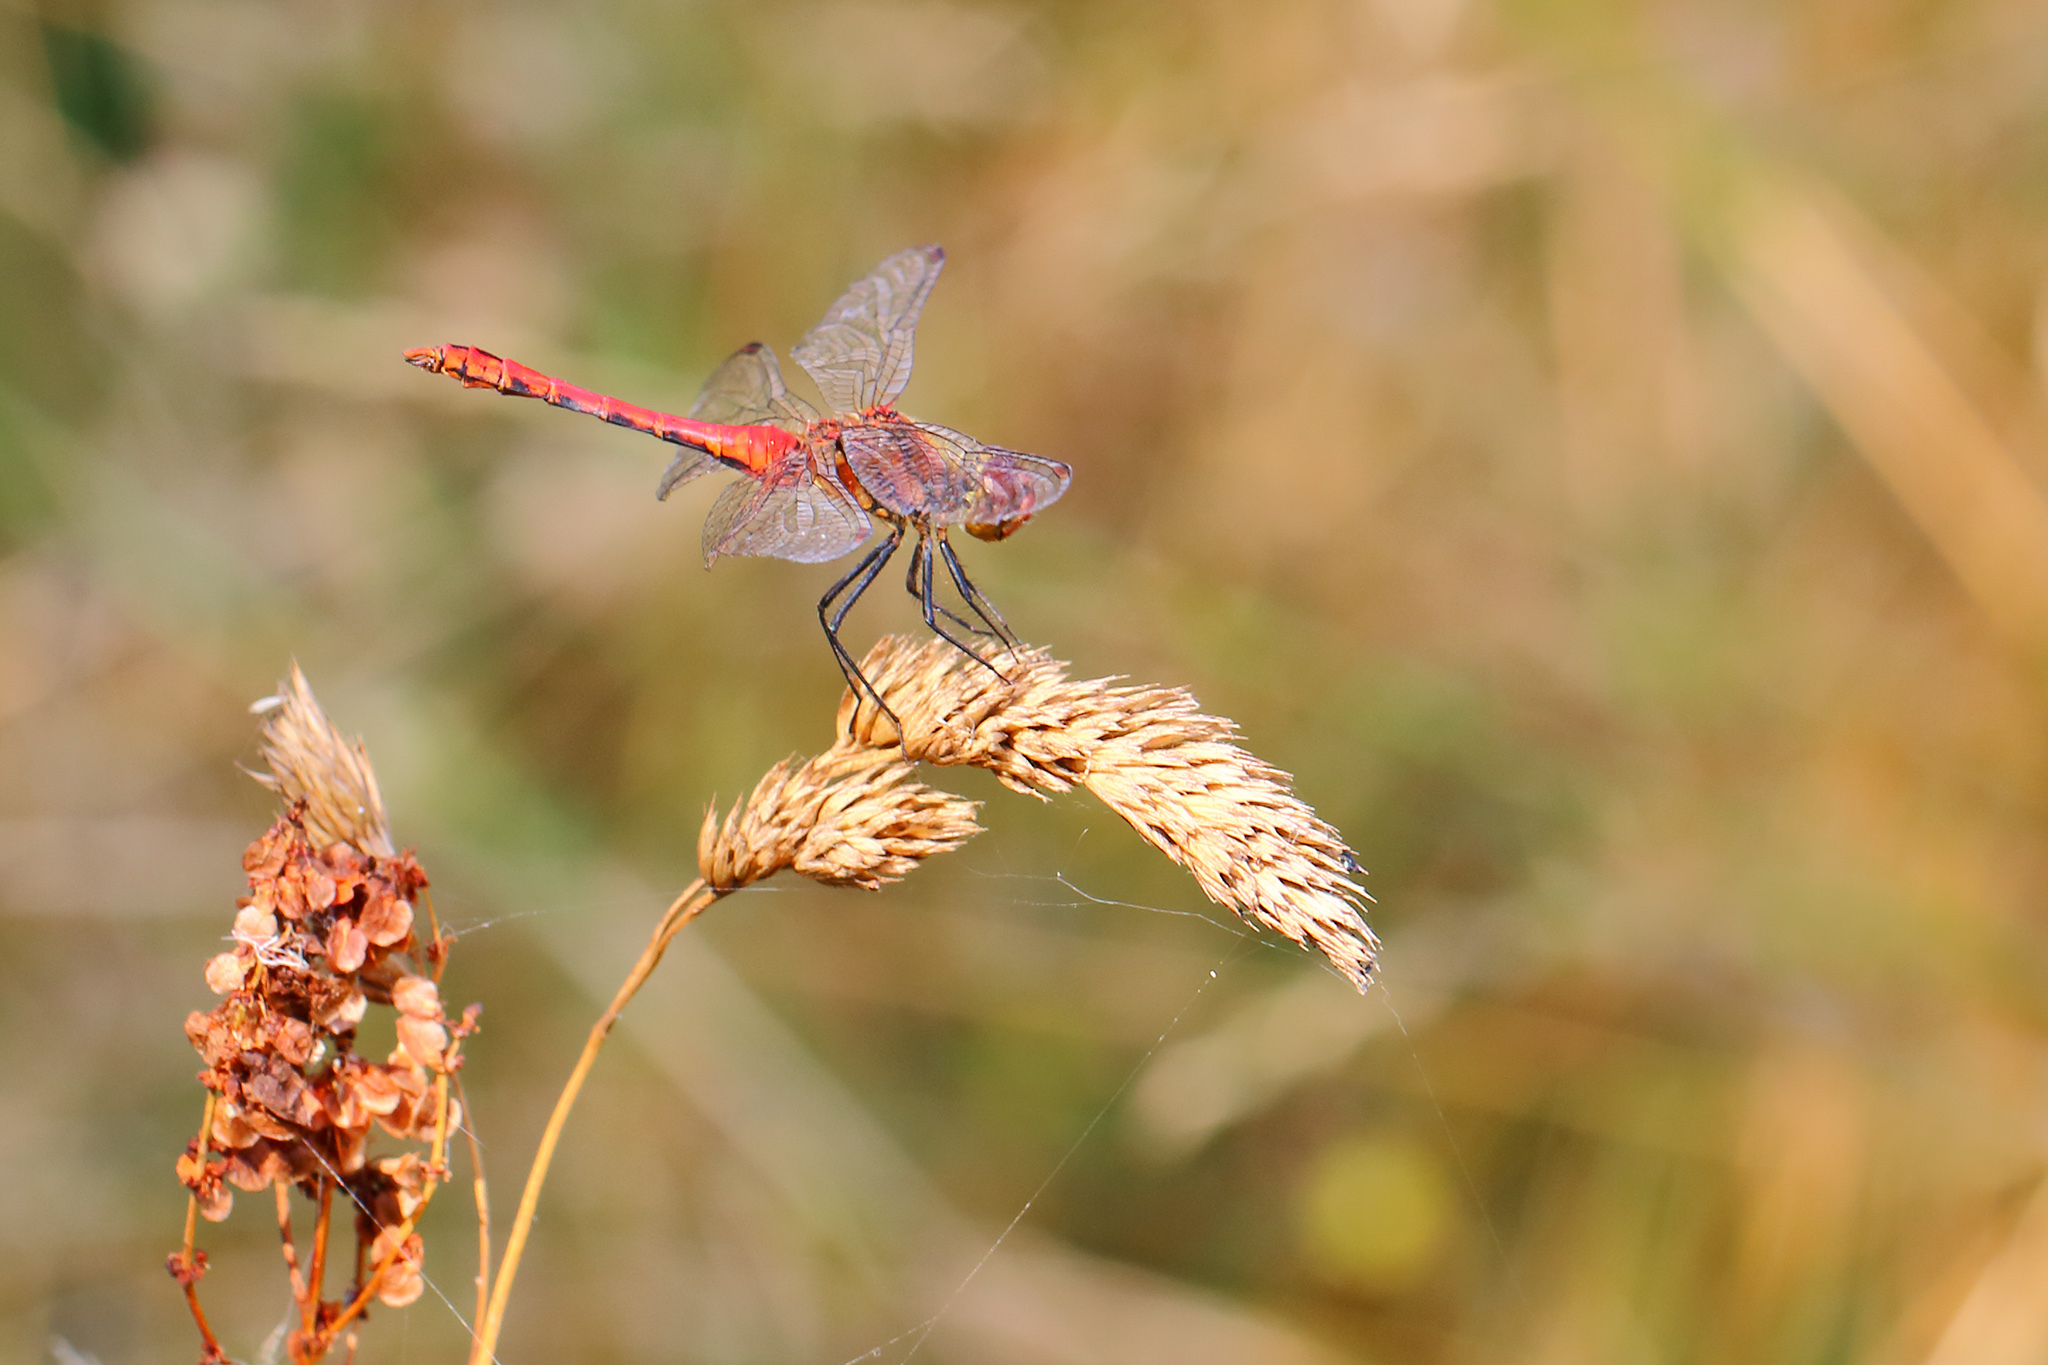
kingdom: Animalia
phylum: Arthropoda
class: Insecta
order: Odonata
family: Libellulidae
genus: Sympetrum
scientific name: Sympetrum sanguineum
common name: Ruddy darter
